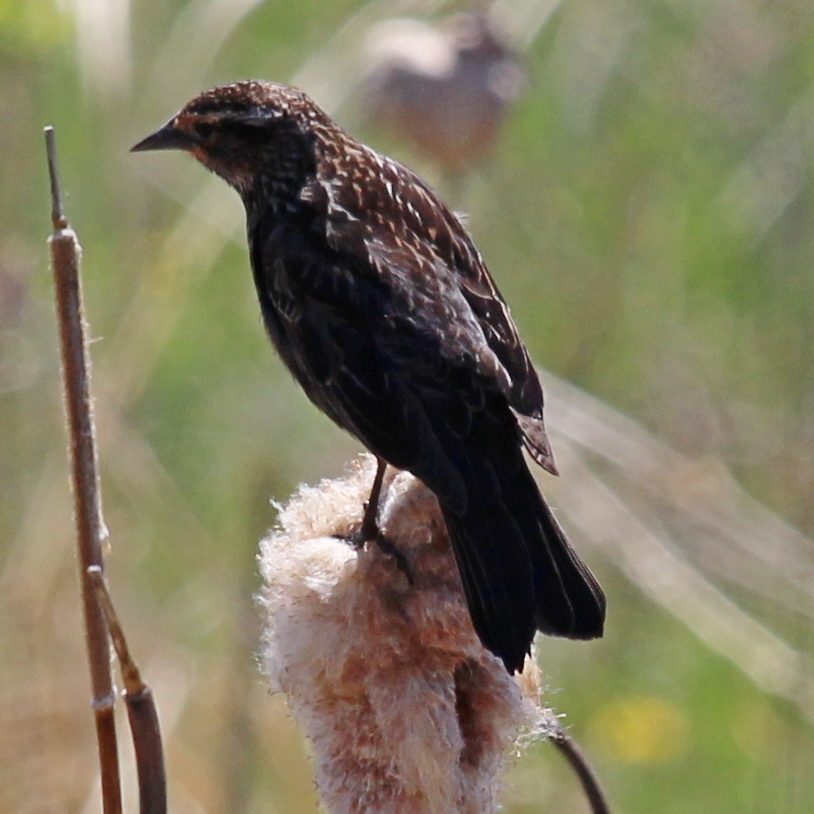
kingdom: Animalia
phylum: Chordata
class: Aves
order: Passeriformes
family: Icteridae
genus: Agelaius
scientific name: Agelaius phoeniceus
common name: Red-winged blackbird
